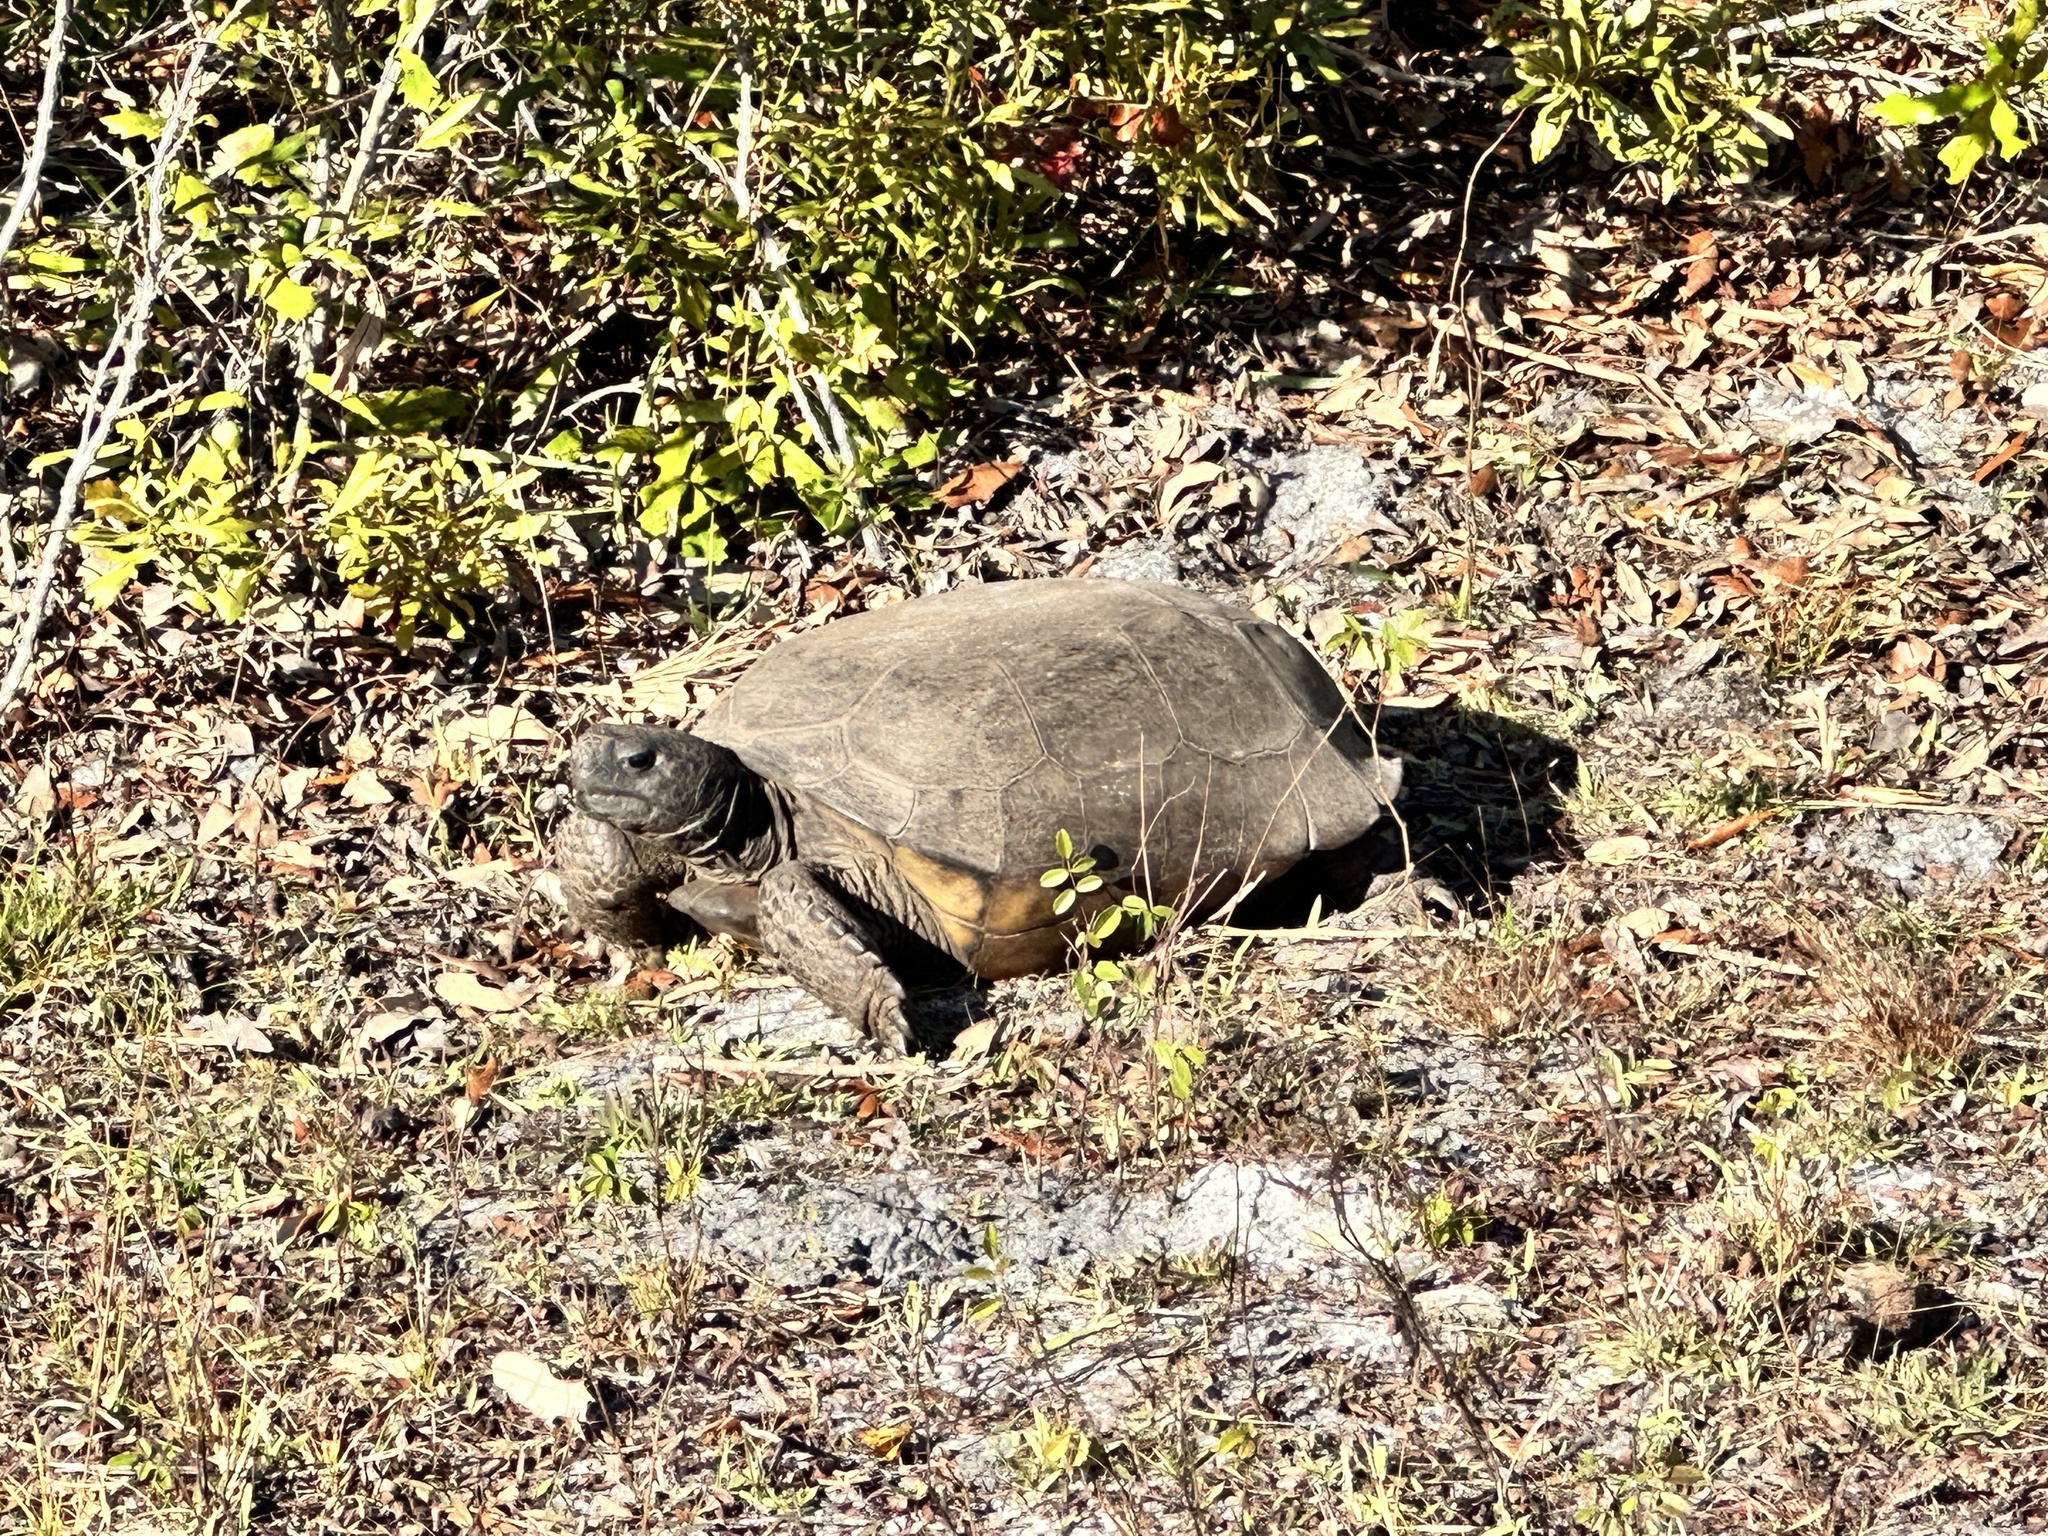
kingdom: Animalia
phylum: Chordata
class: Testudines
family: Testudinidae
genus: Gopherus
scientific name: Gopherus polyphemus
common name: Florida gopher tortoise
